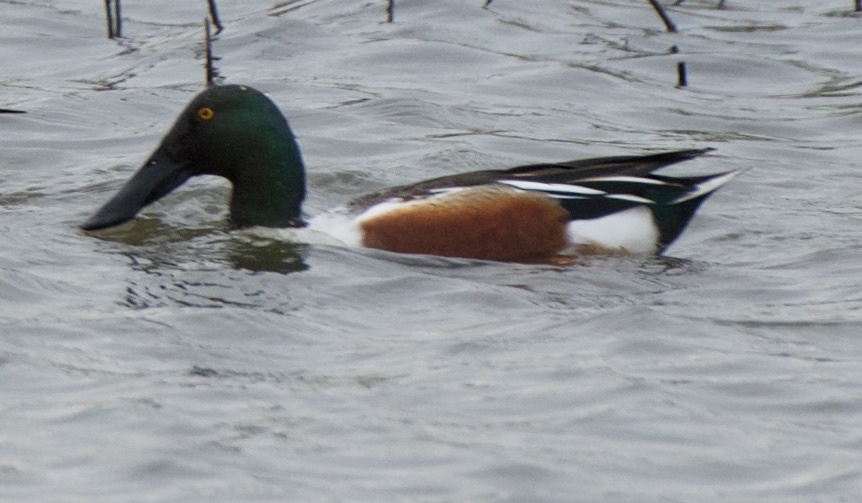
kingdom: Animalia
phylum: Chordata
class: Aves
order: Anseriformes
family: Anatidae
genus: Spatula
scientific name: Spatula clypeata
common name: Northern shoveler
